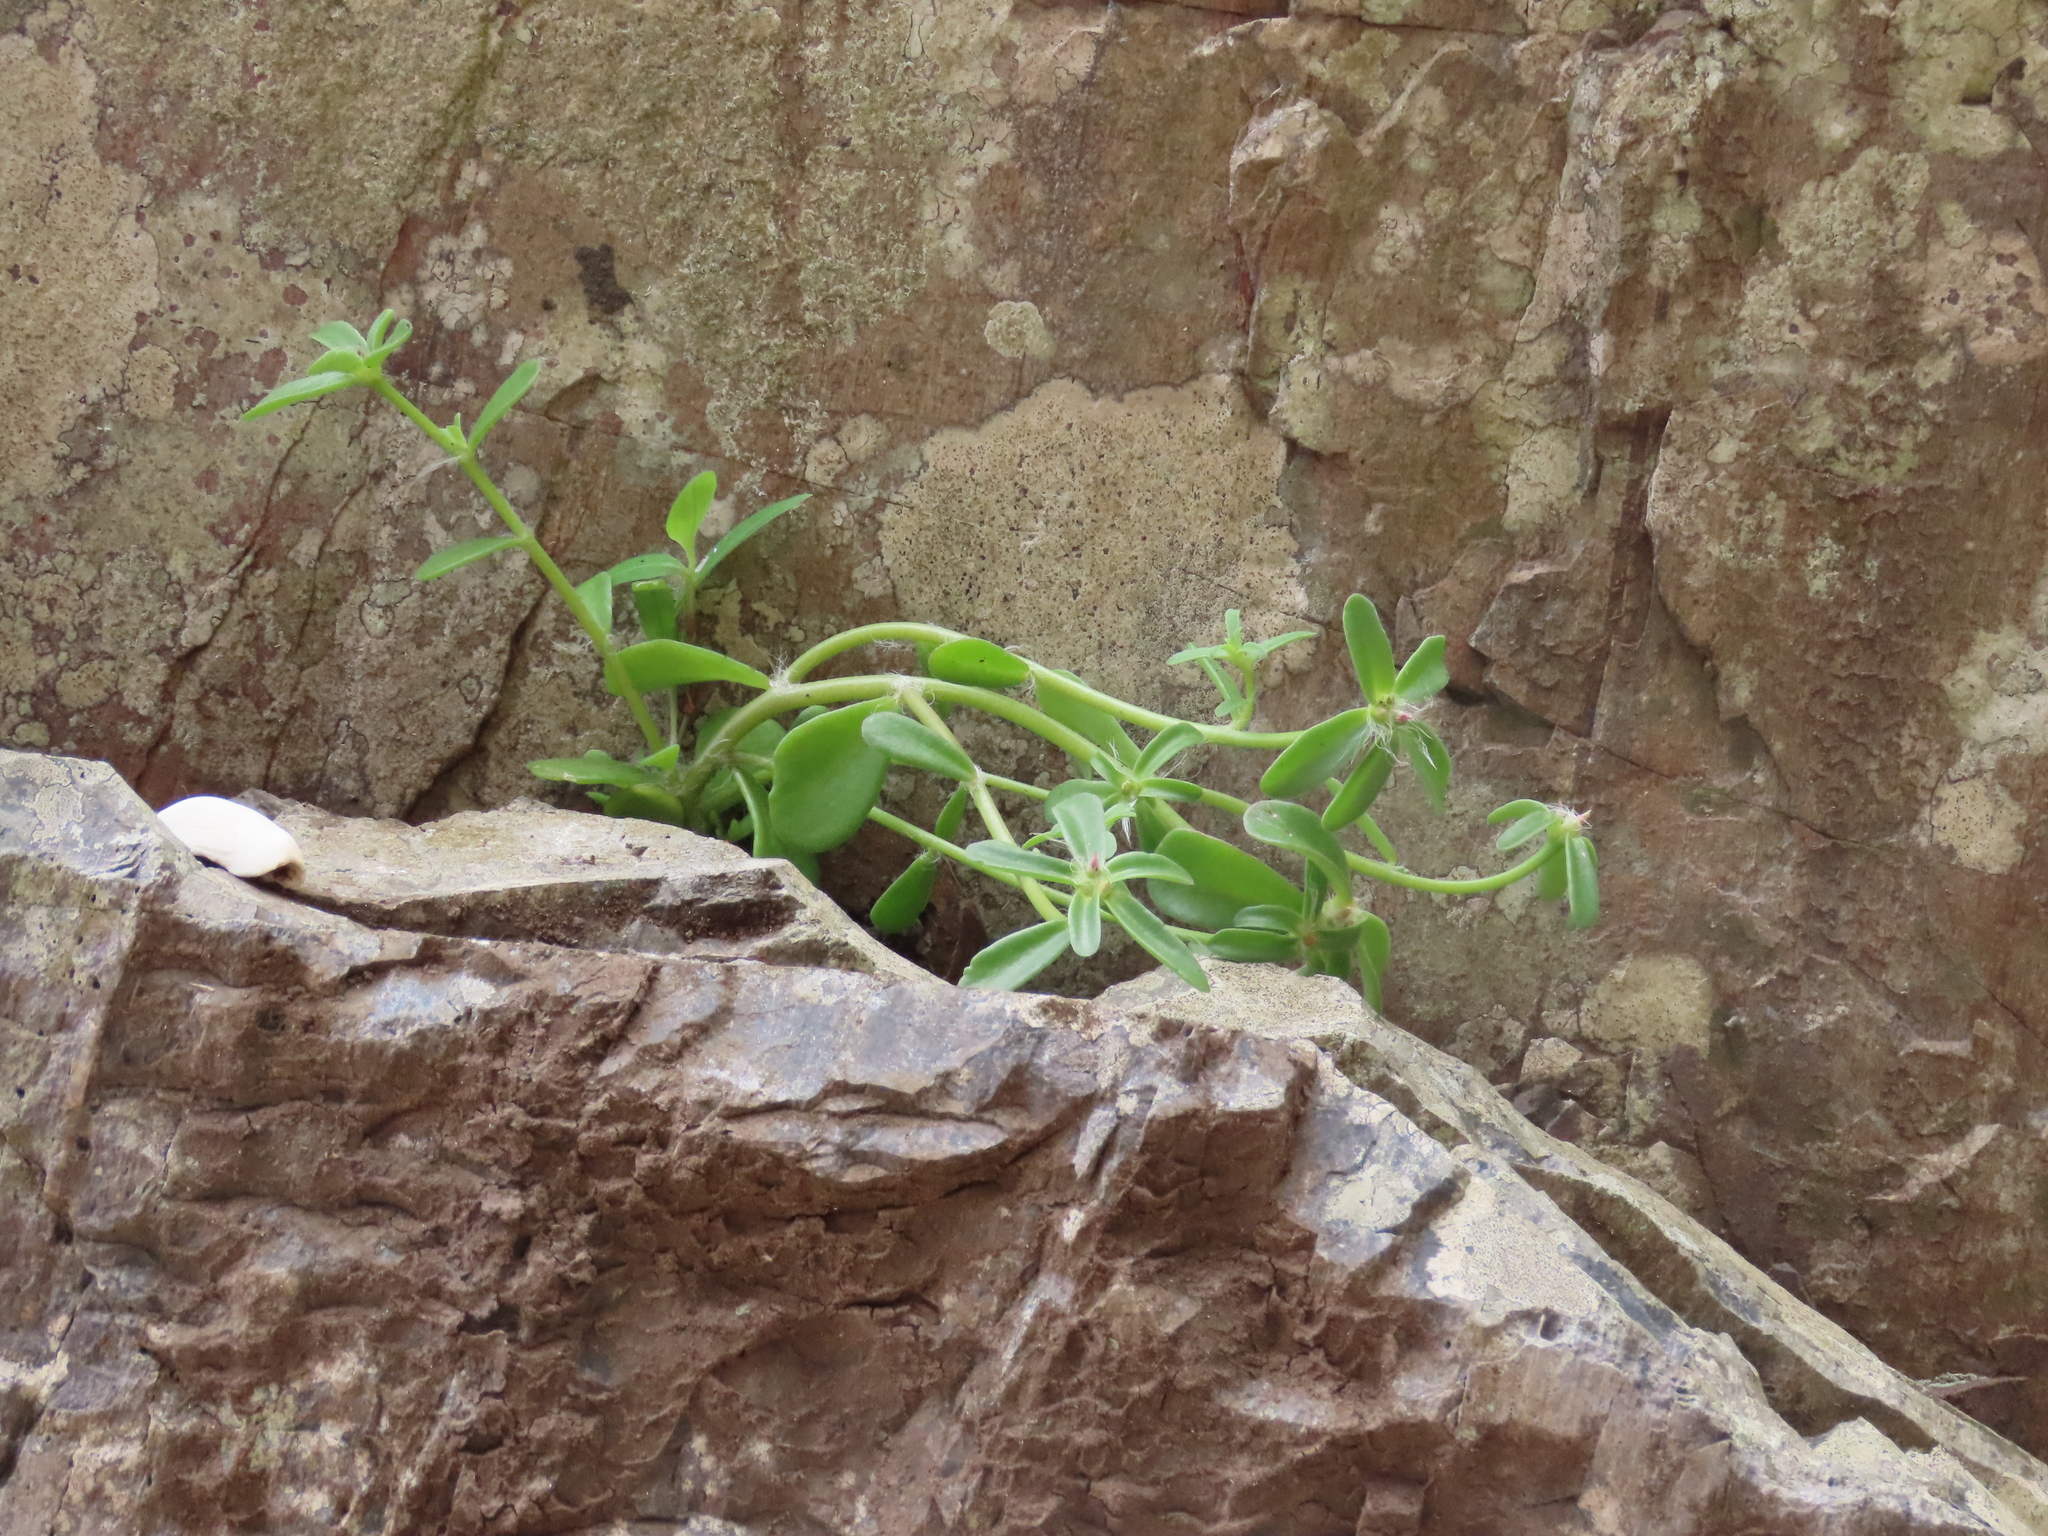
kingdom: Plantae
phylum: Tracheophyta
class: Magnoliopsida
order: Caryophyllales
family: Portulacaceae
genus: Portulaca
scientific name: Portulaca cryptopetala
